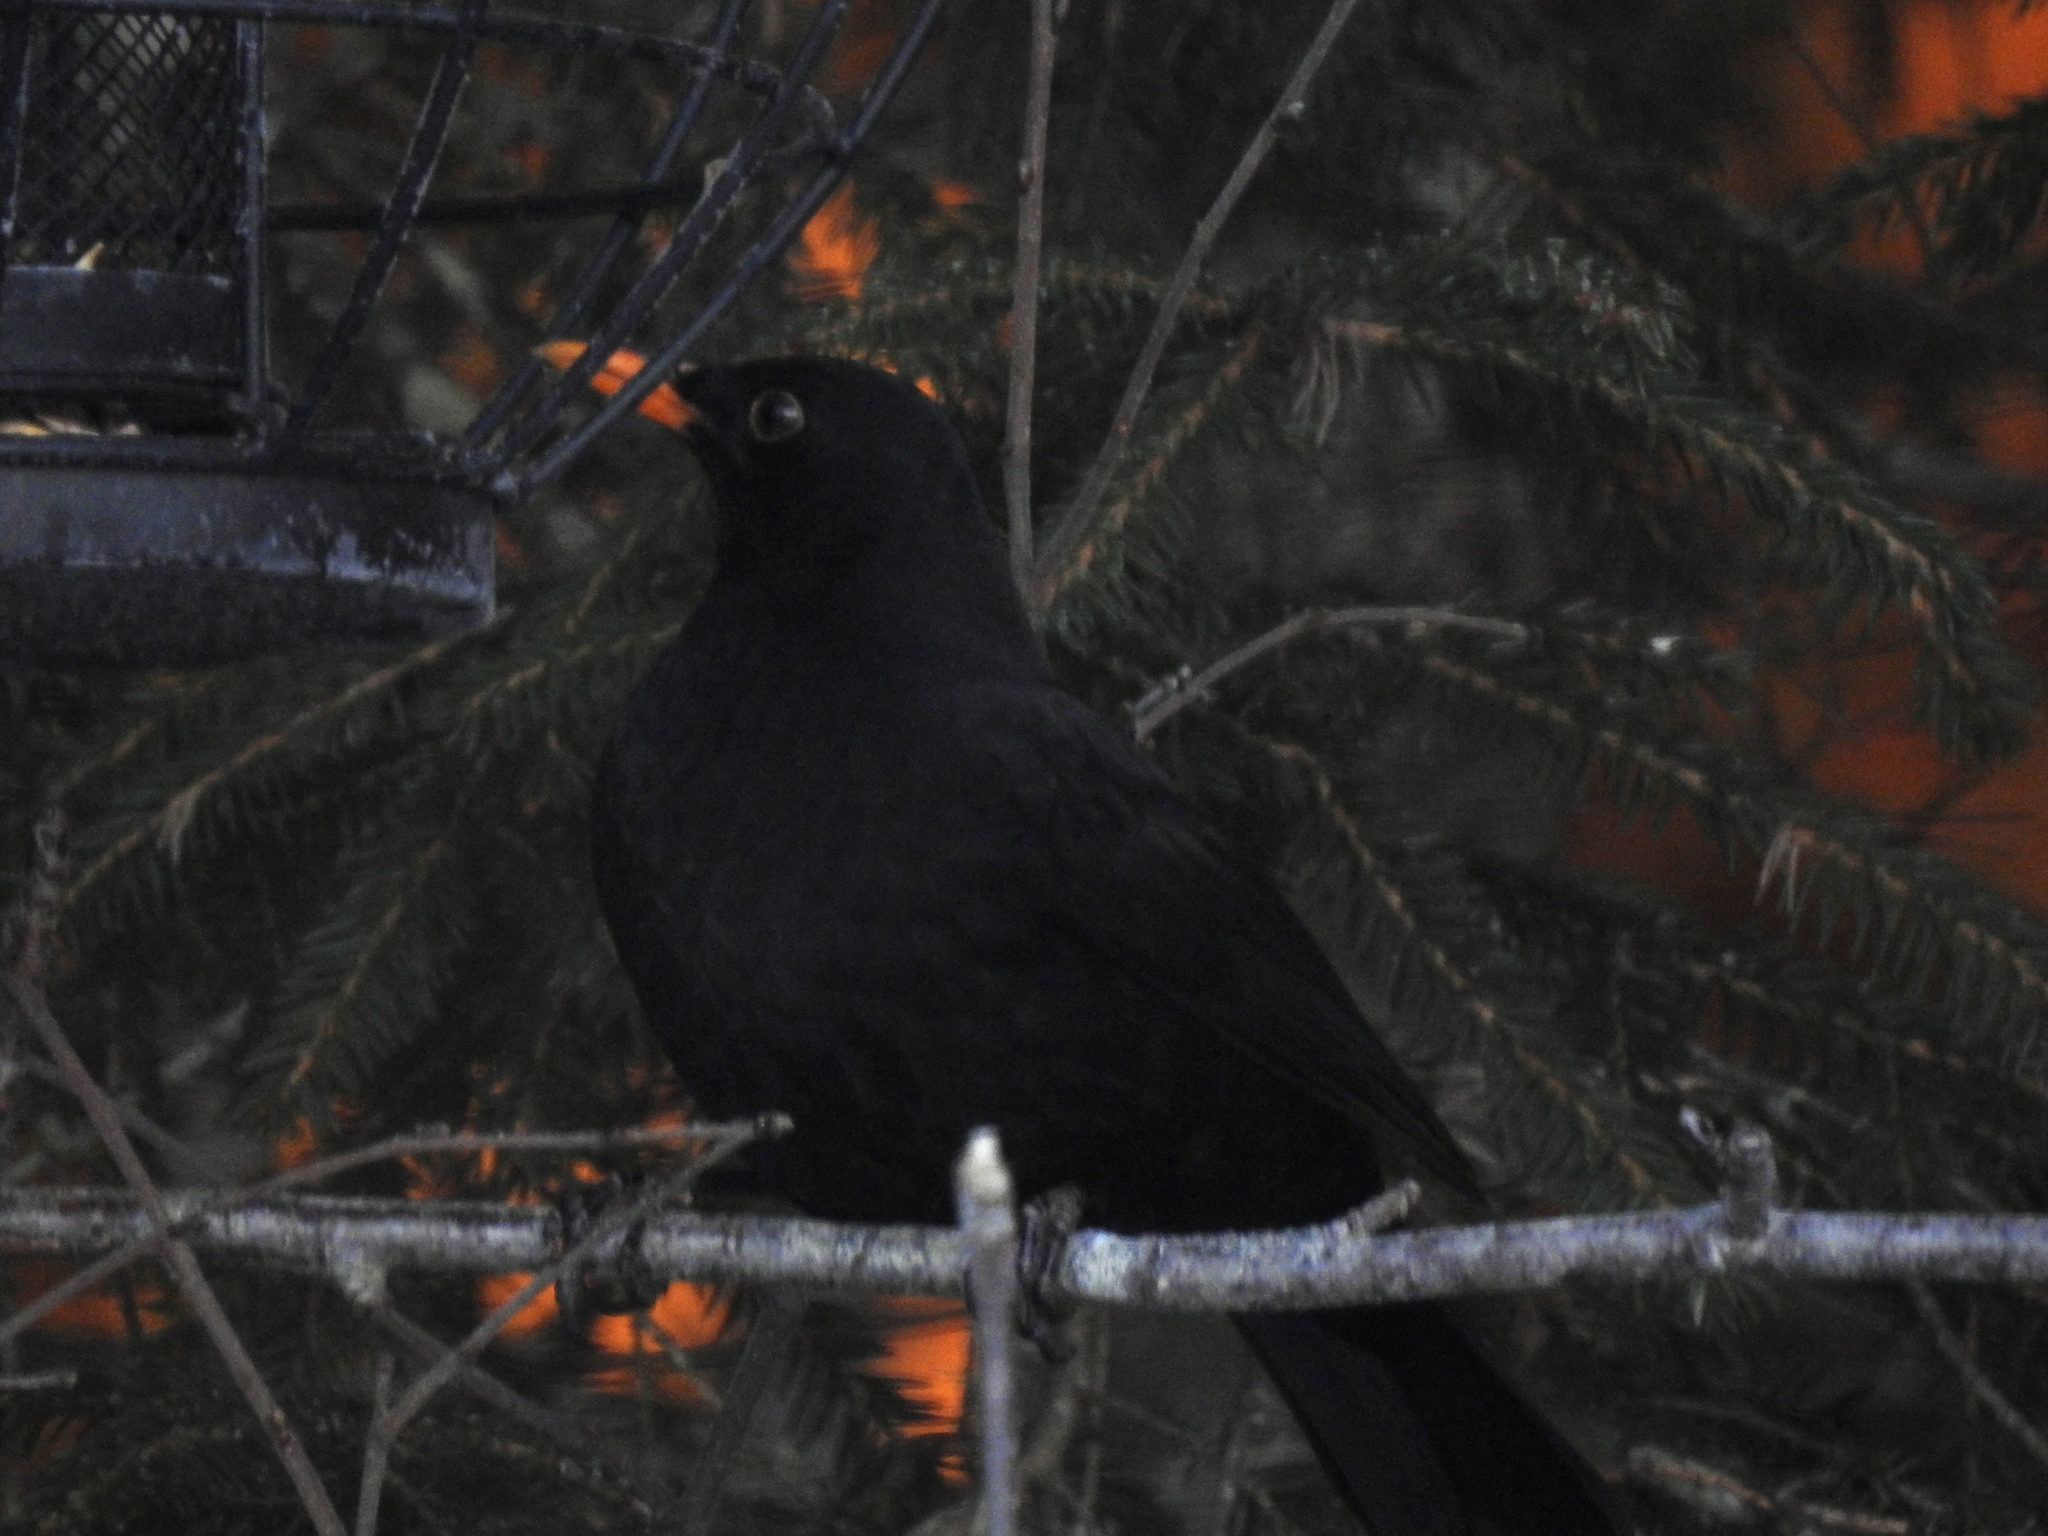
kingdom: Animalia
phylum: Chordata
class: Aves
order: Passeriformes
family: Turdidae
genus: Turdus
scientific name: Turdus merula
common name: Common blackbird
